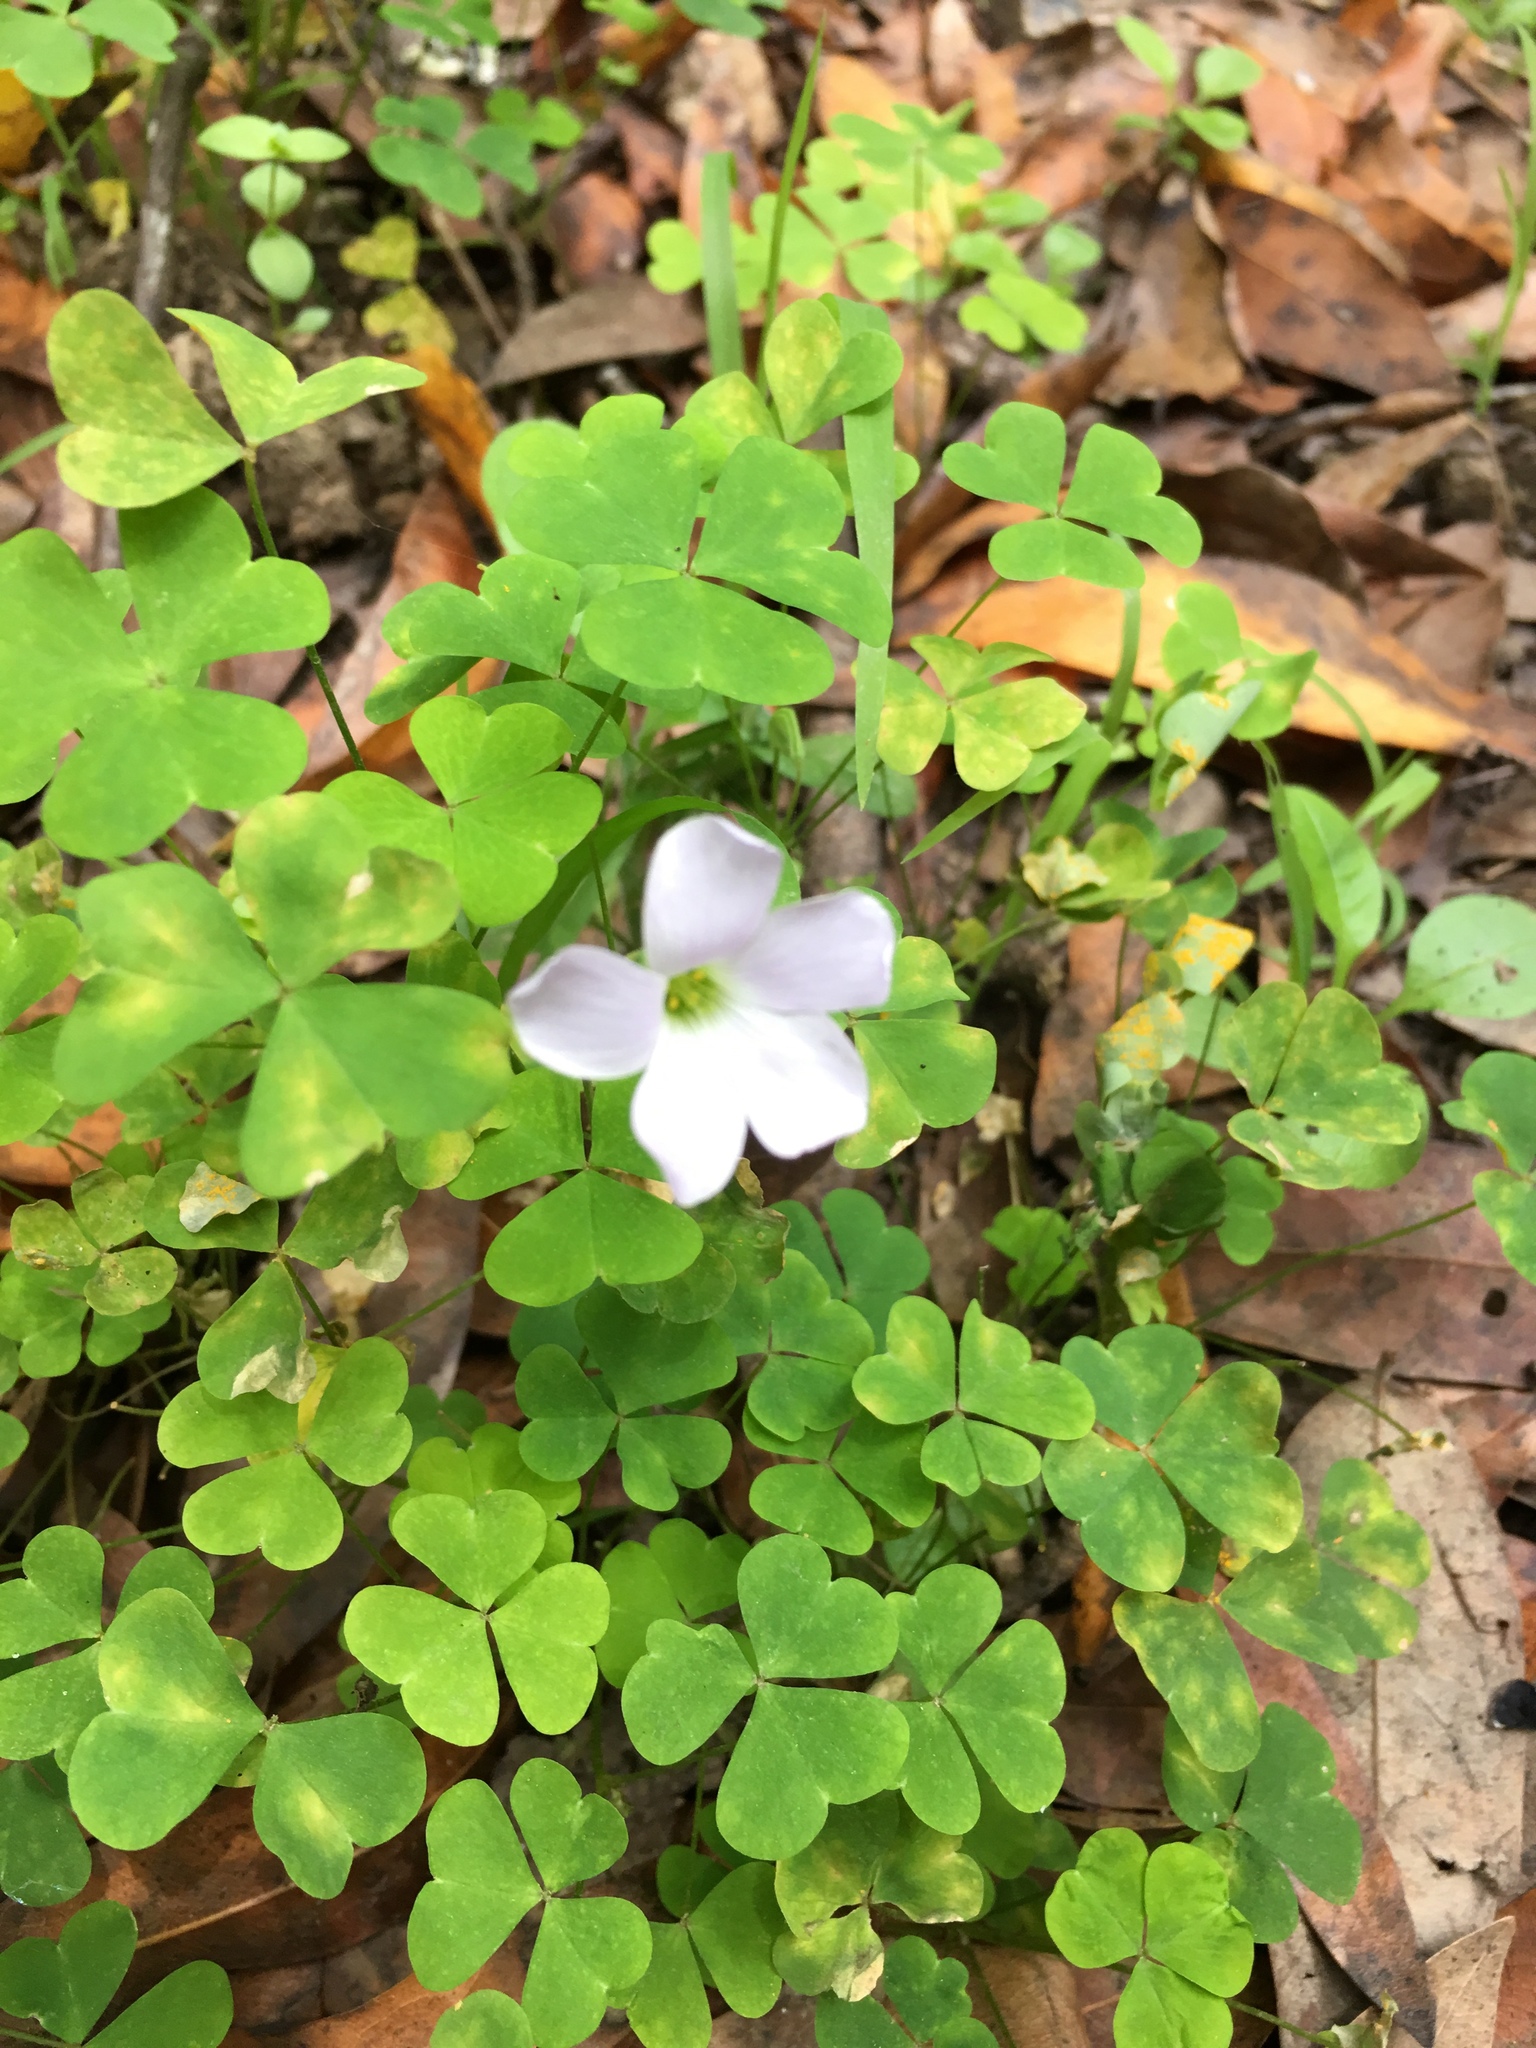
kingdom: Plantae
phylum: Tracheophyta
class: Magnoliopsida
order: Oxalidales
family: Oxalidaceae
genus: Oxalis
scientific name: Oxalis incarnata
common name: Pale pink-sorrel
